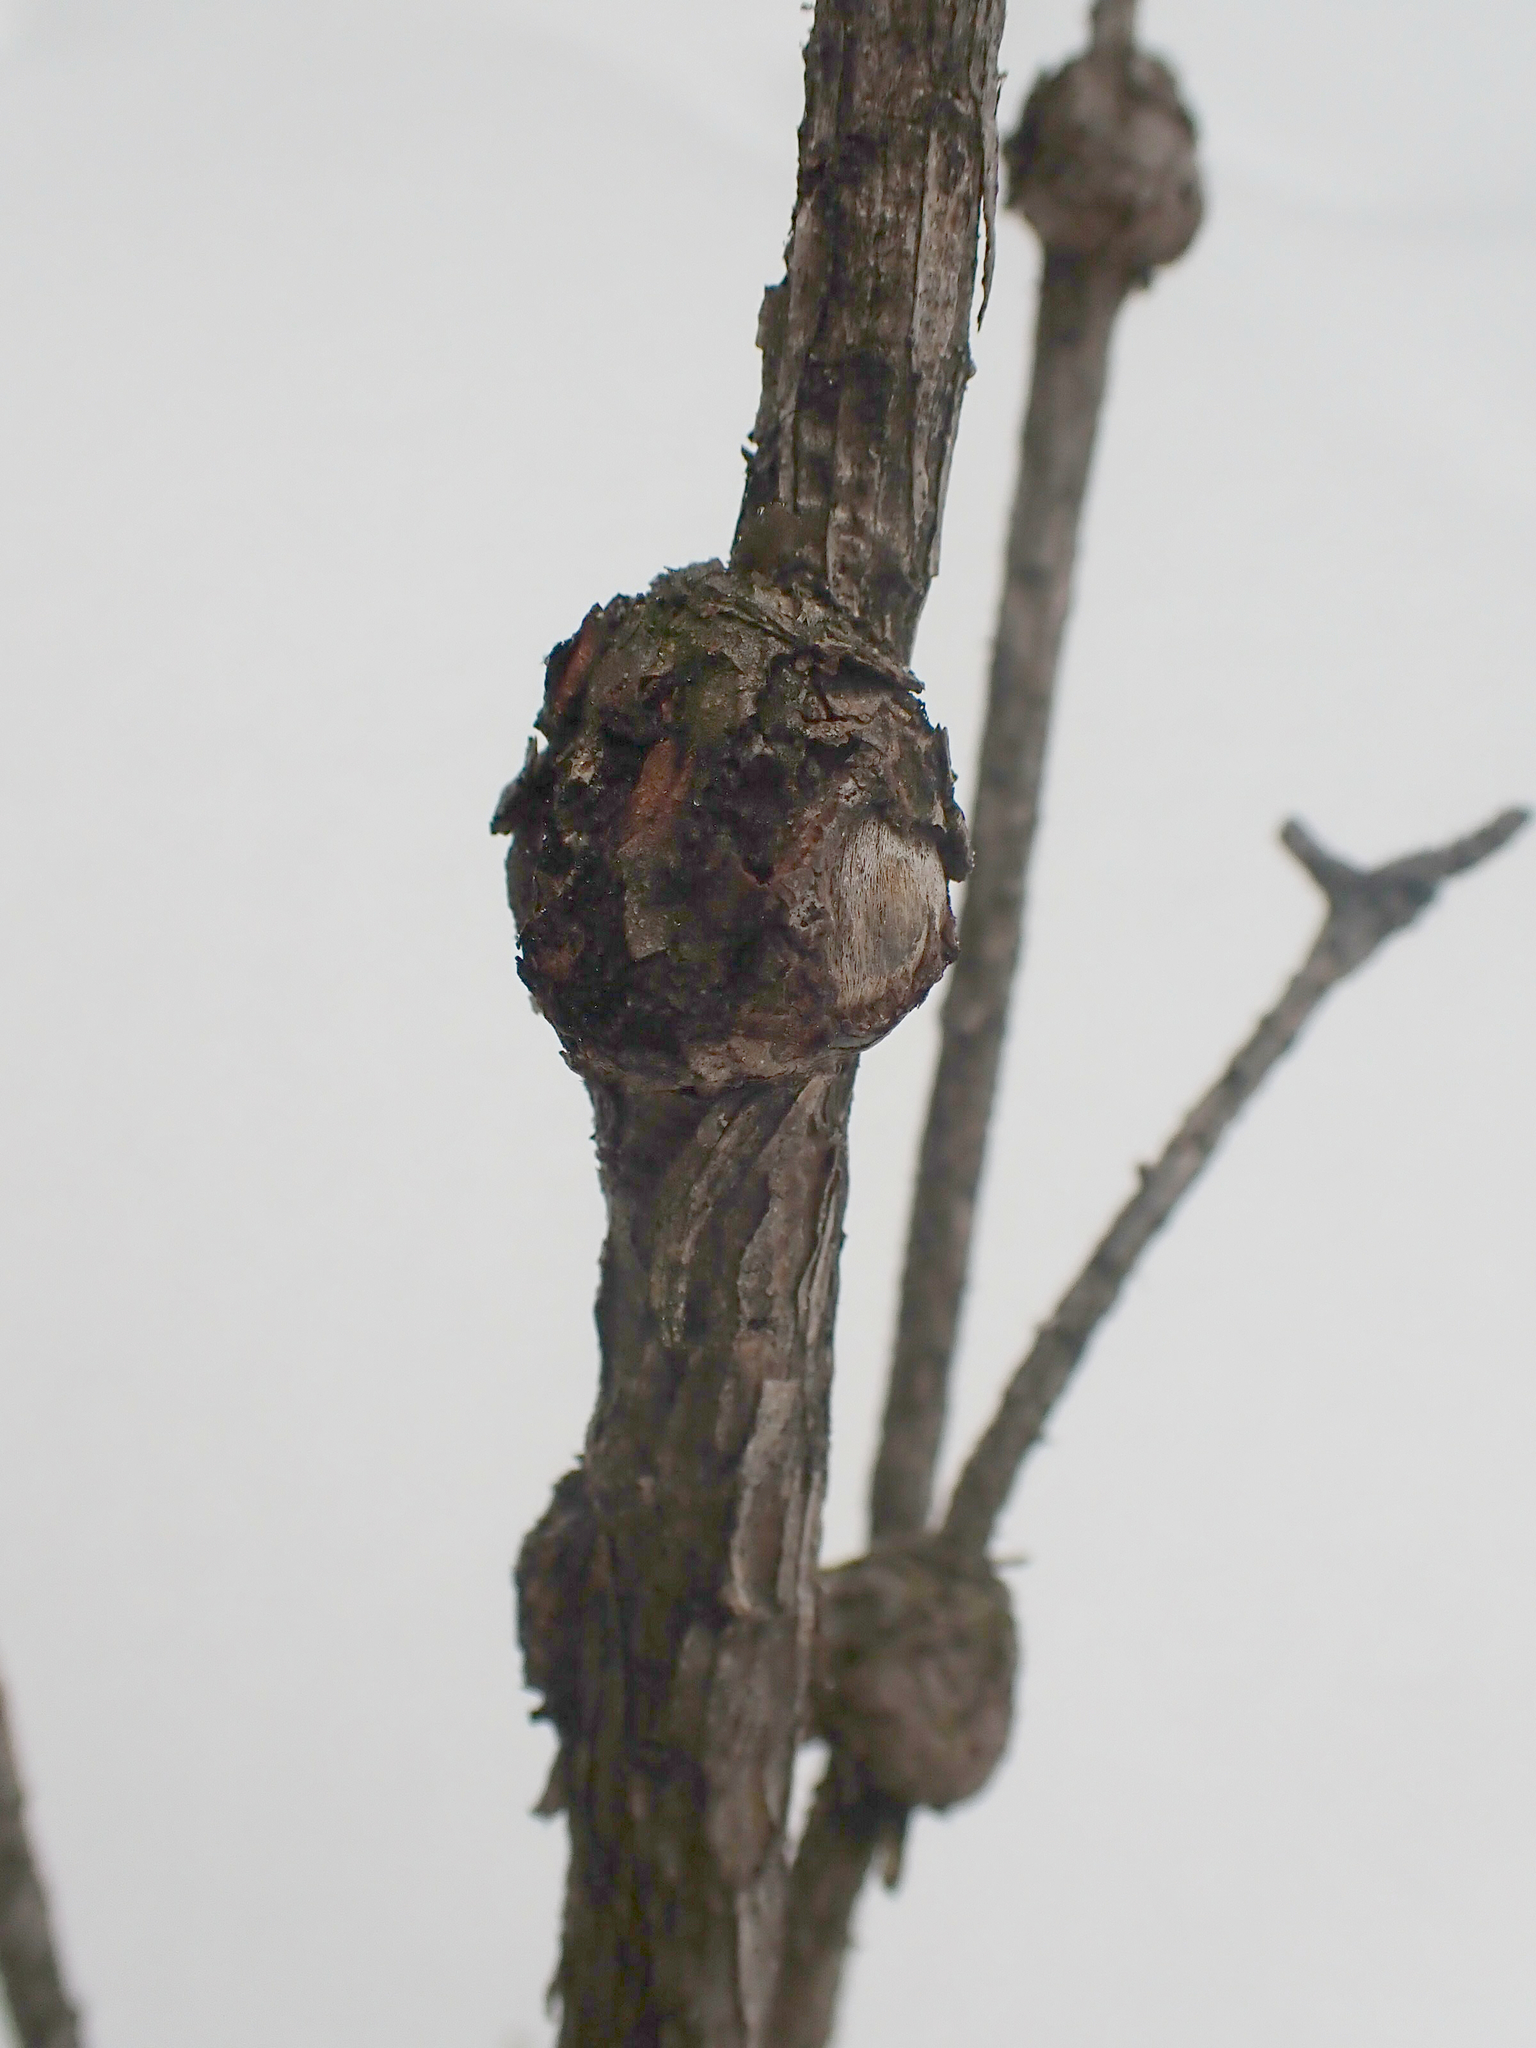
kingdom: Fungi
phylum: Basidiomycota
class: Pucciniomycetes
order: Pucciniales
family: Cronartiaceae
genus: Cronartium
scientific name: Cronartium harknessii
